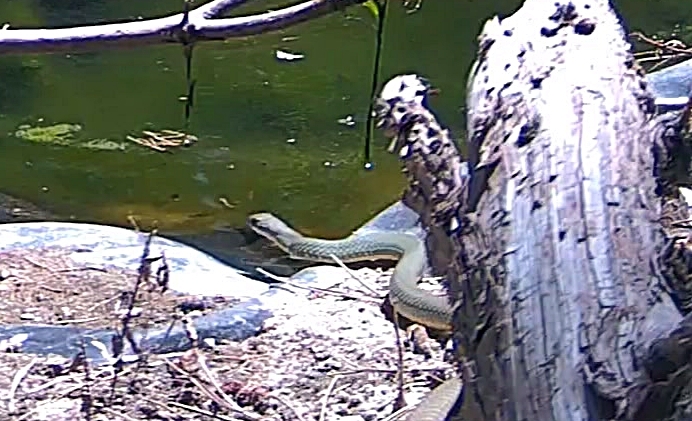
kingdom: Animalia
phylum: Chordata
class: Squamata
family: Colubridae
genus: Coluber
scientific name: Coluber constrictor
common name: Eastern racer
